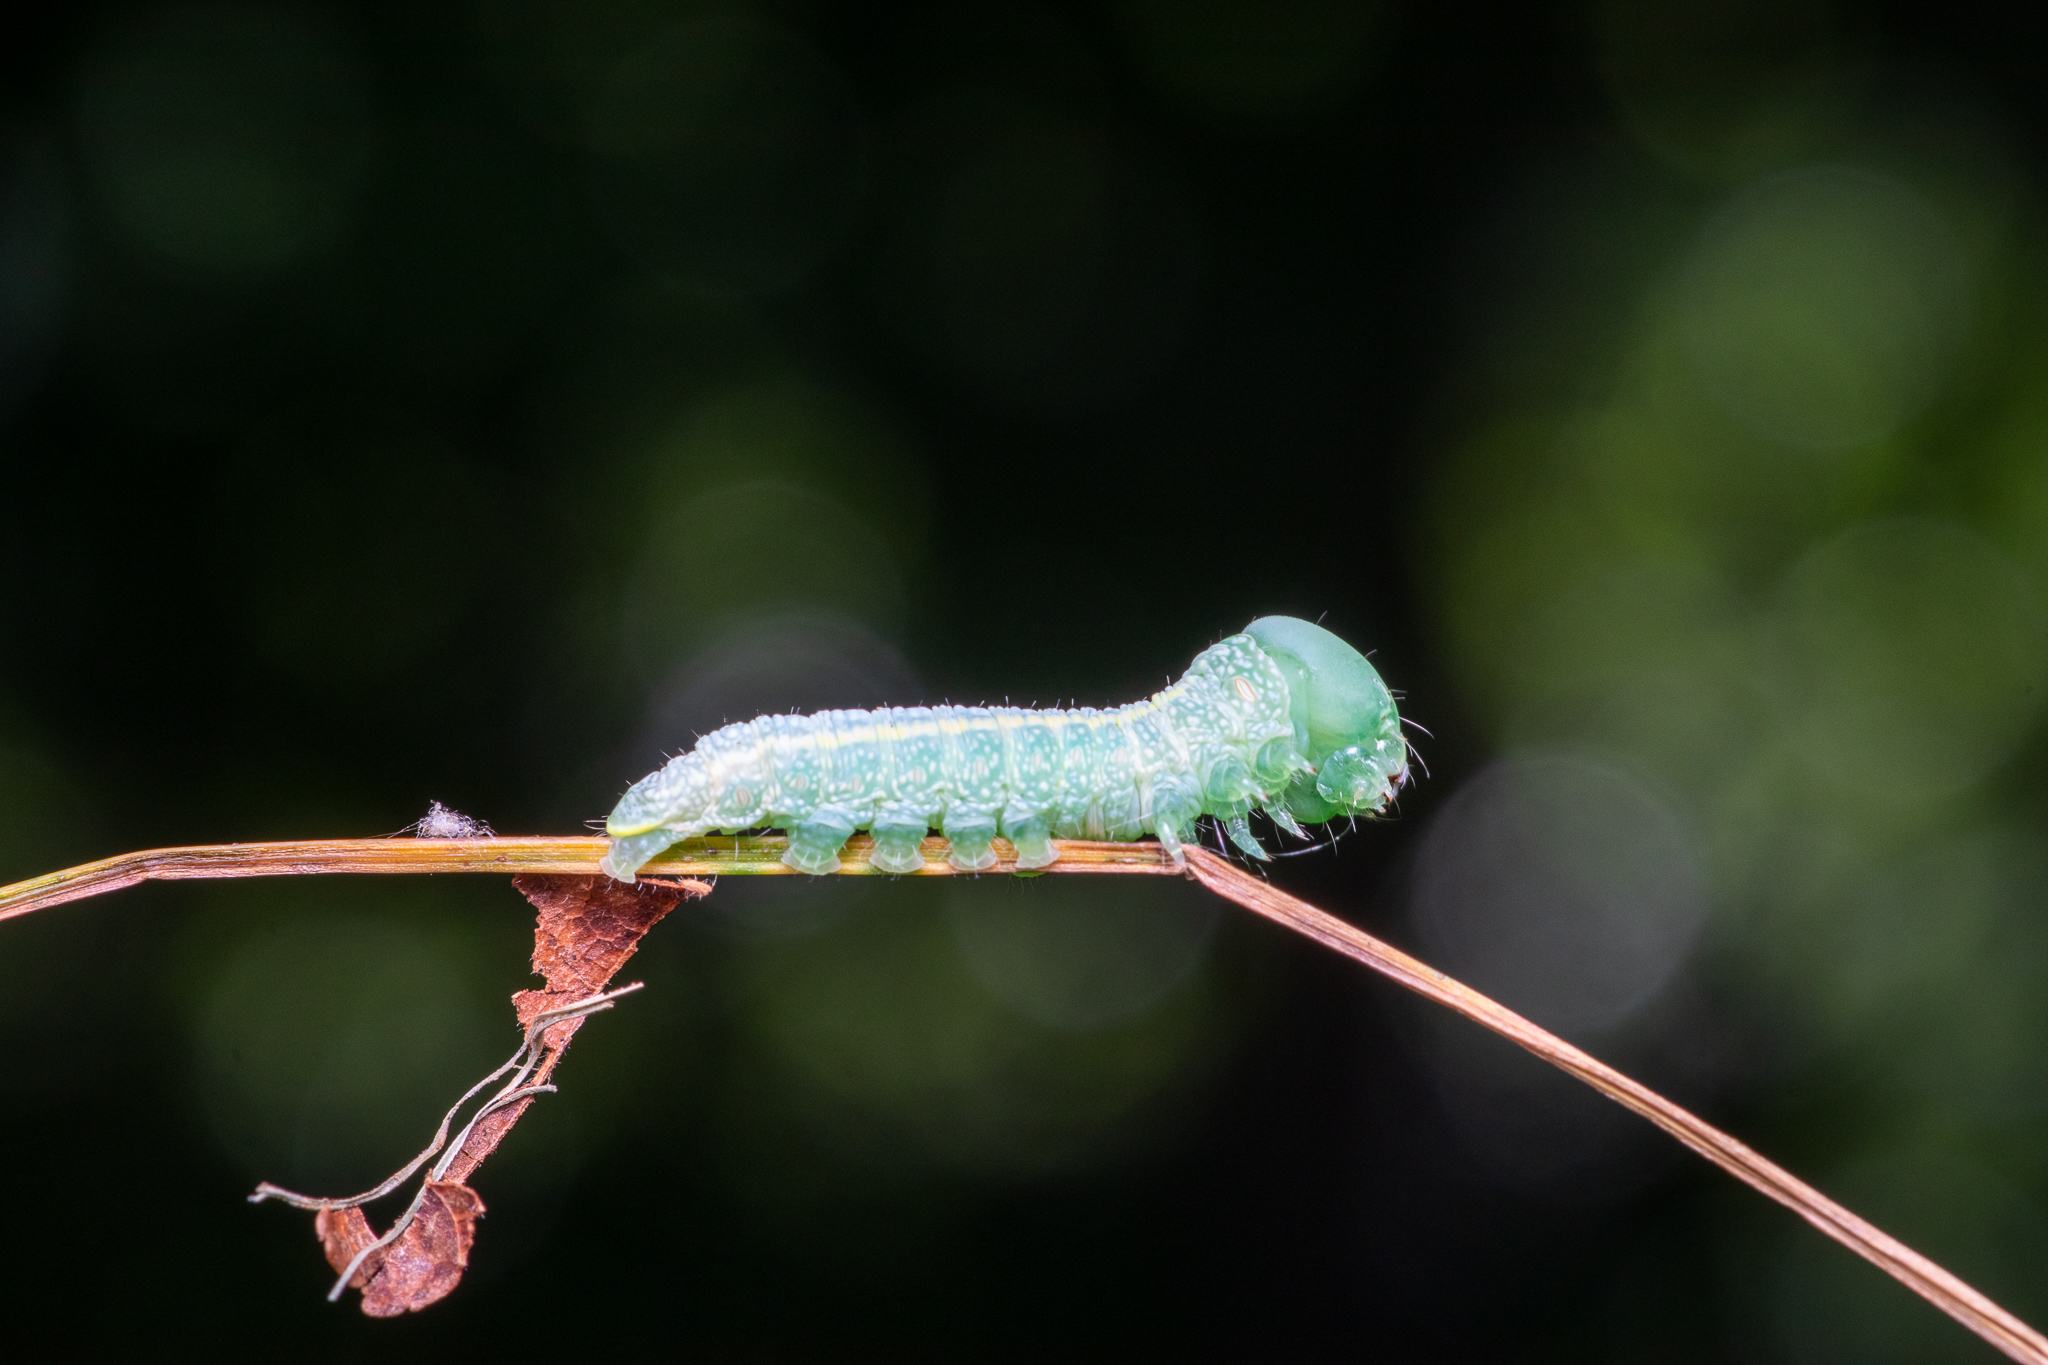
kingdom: Animalia
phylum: Arthropoda
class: Insecta
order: Lepidoptera
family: Notodontidae
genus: Nadata
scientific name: Nadata gibbosa
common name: White-dotted prominent
